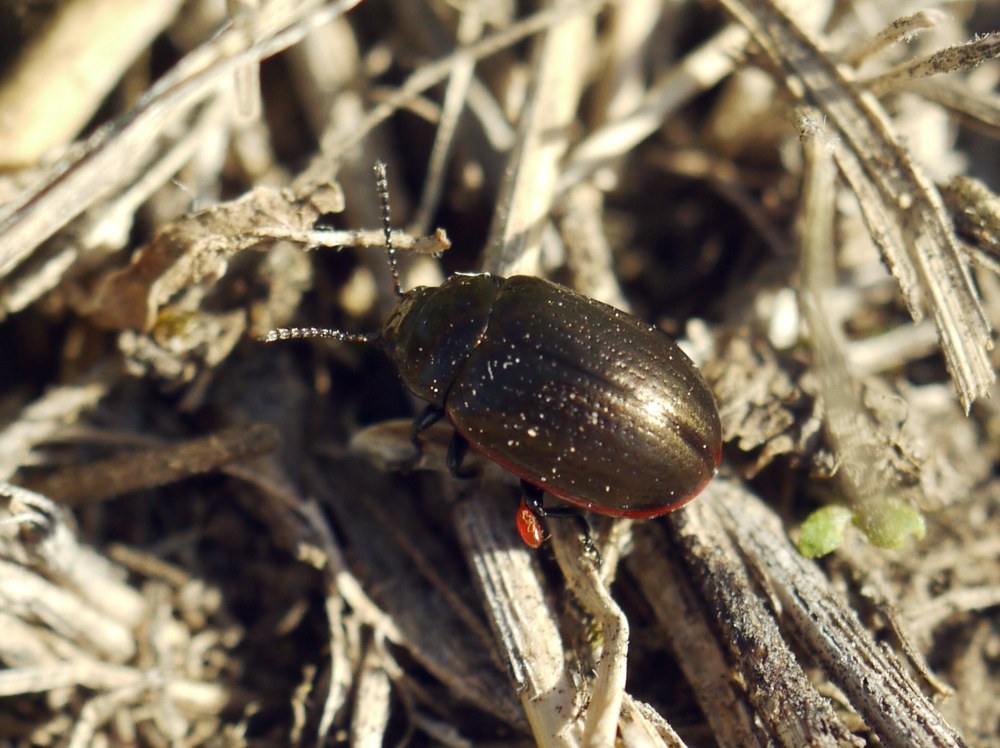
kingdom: Animalia
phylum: Arthropoda
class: Insecta
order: Coleoptera
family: Chrysomelidae
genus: Chrysolina
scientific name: Chrysolina marginata
